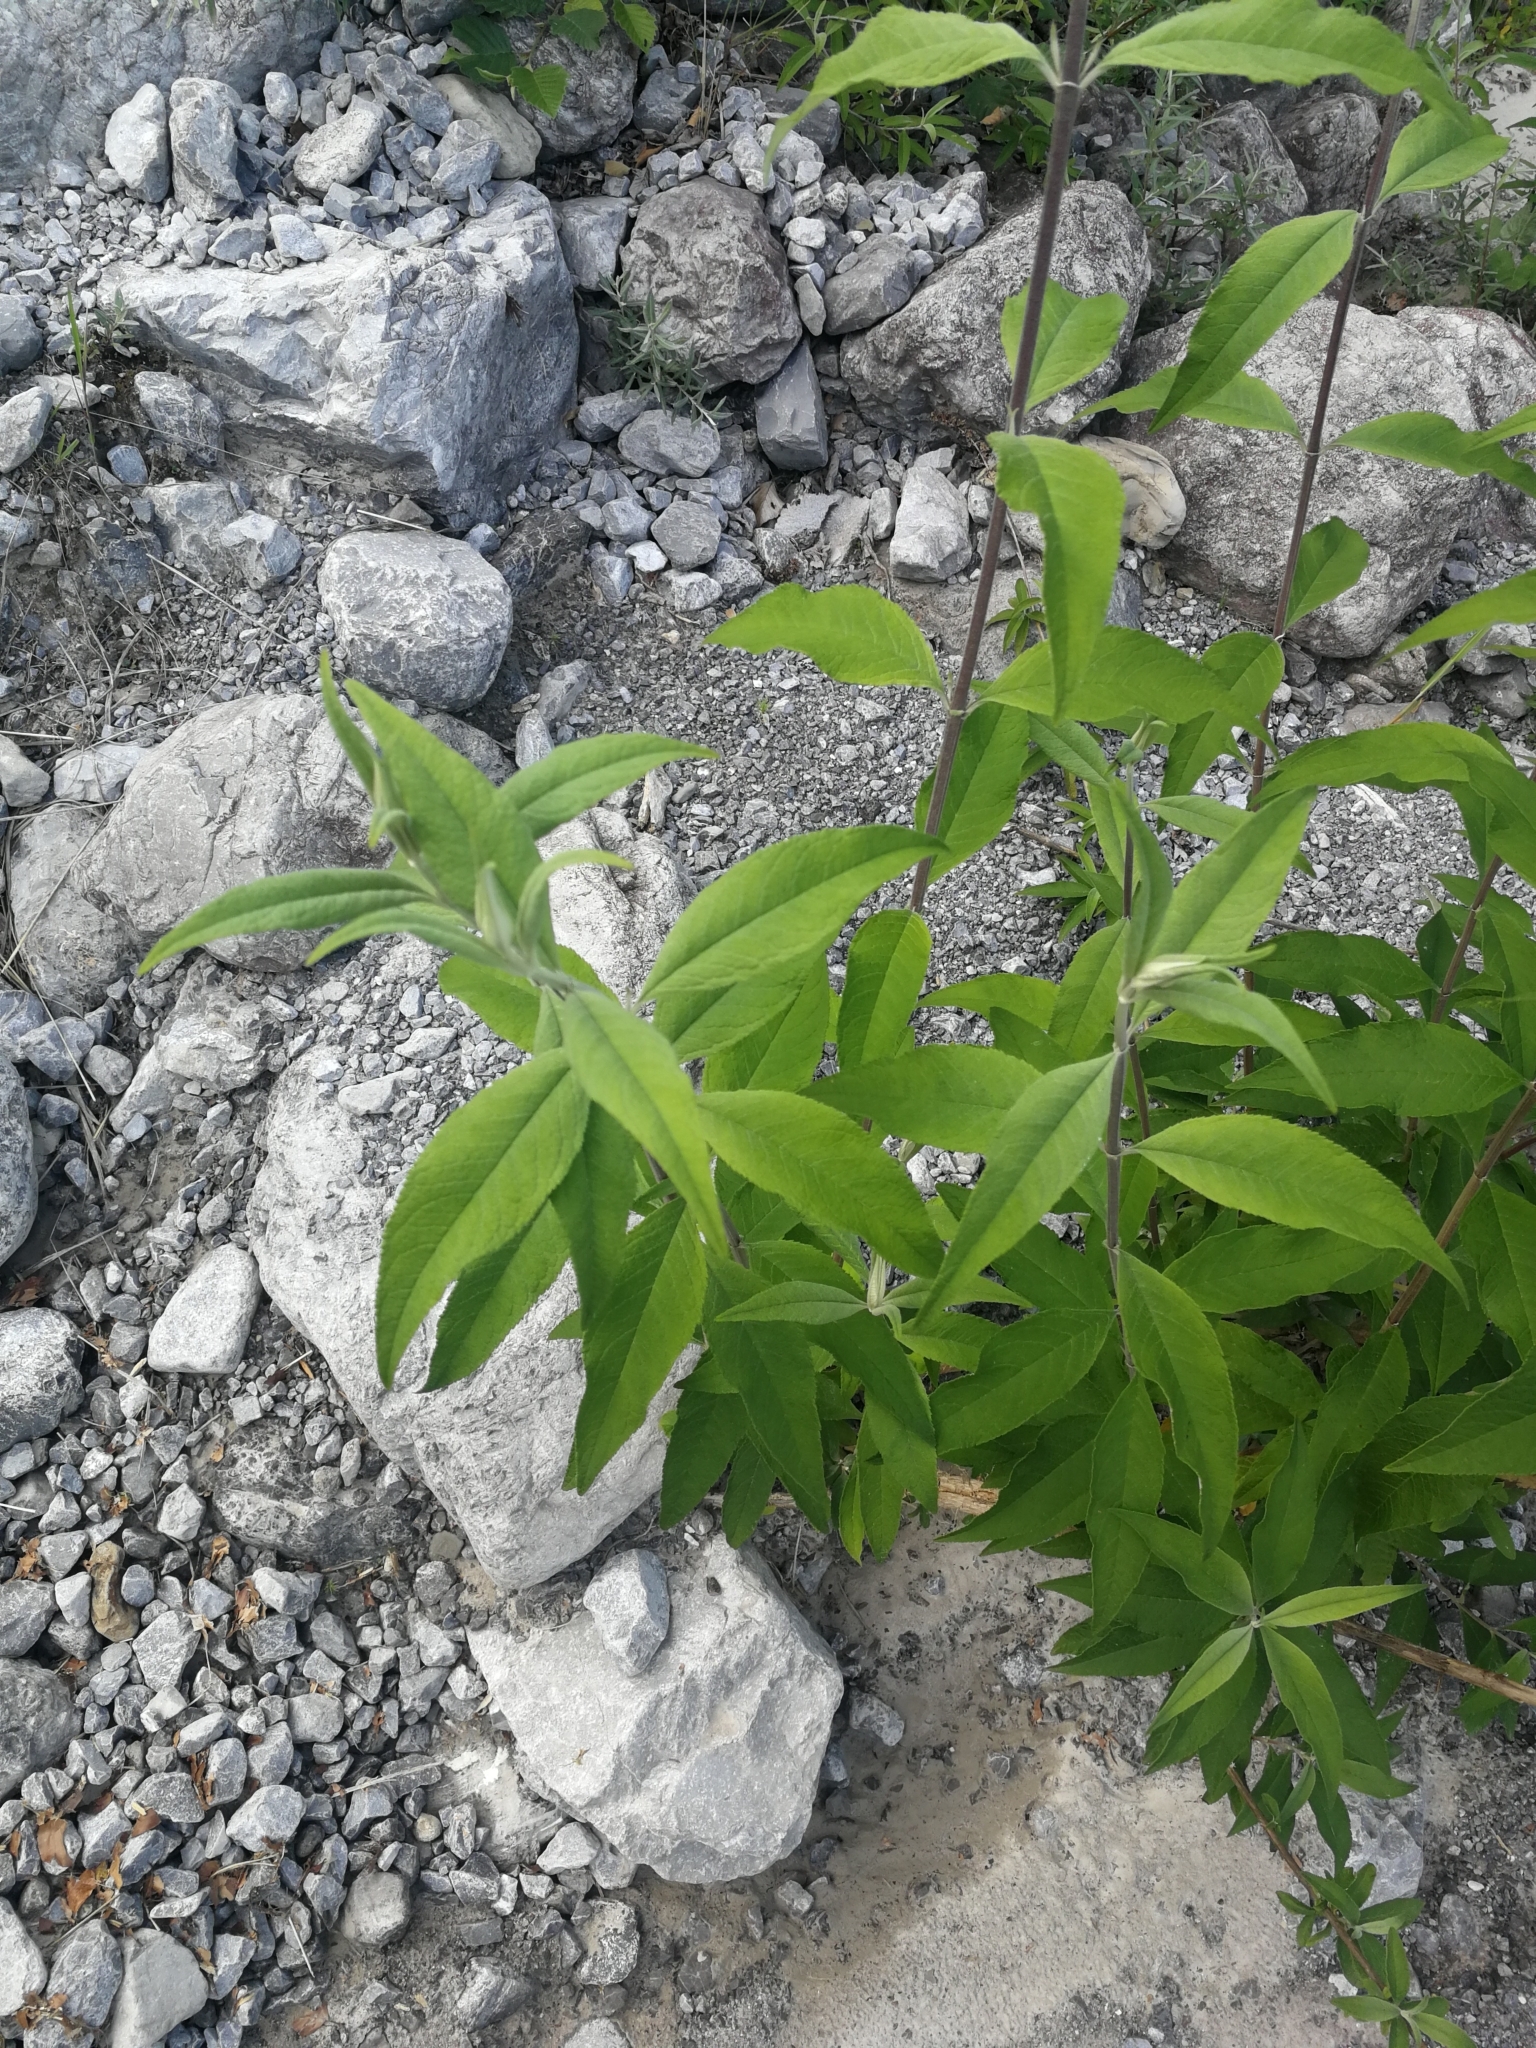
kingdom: Plantae
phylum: Tracheophyta
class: Magnoliopsida
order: Lamiales
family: Scrophulariaceae
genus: Buddleja
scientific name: Buddleja davidii
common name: Butterfly-bush
